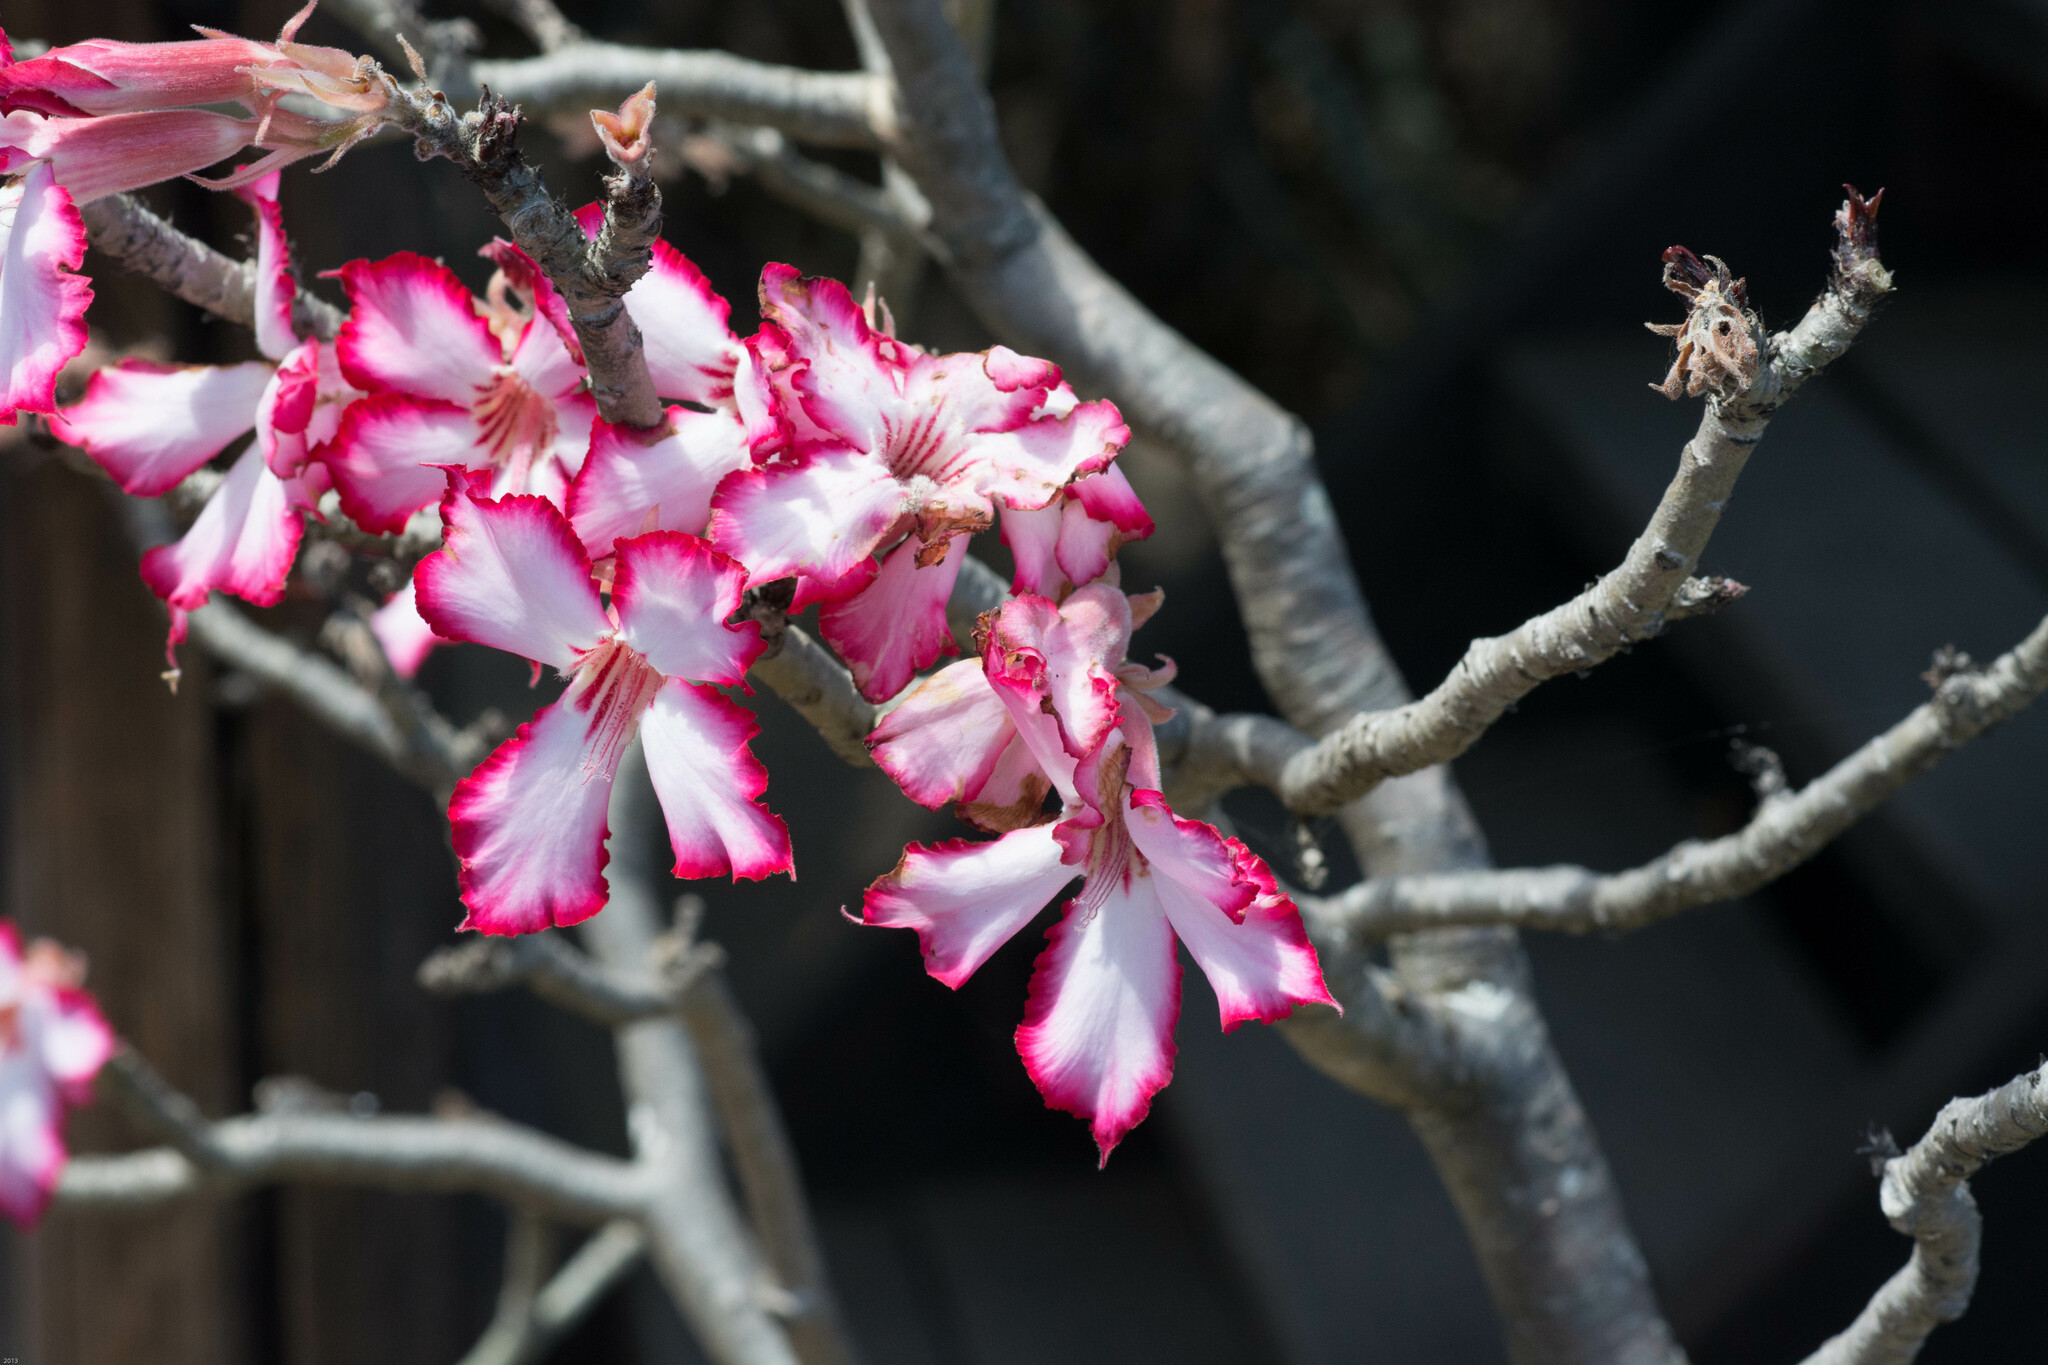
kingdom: Plantae
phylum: Tracheophyta
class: Magnoliopsida
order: Gentianales
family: Apocynaceae
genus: Adenium
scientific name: Adenium obesum
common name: Desert-rose
